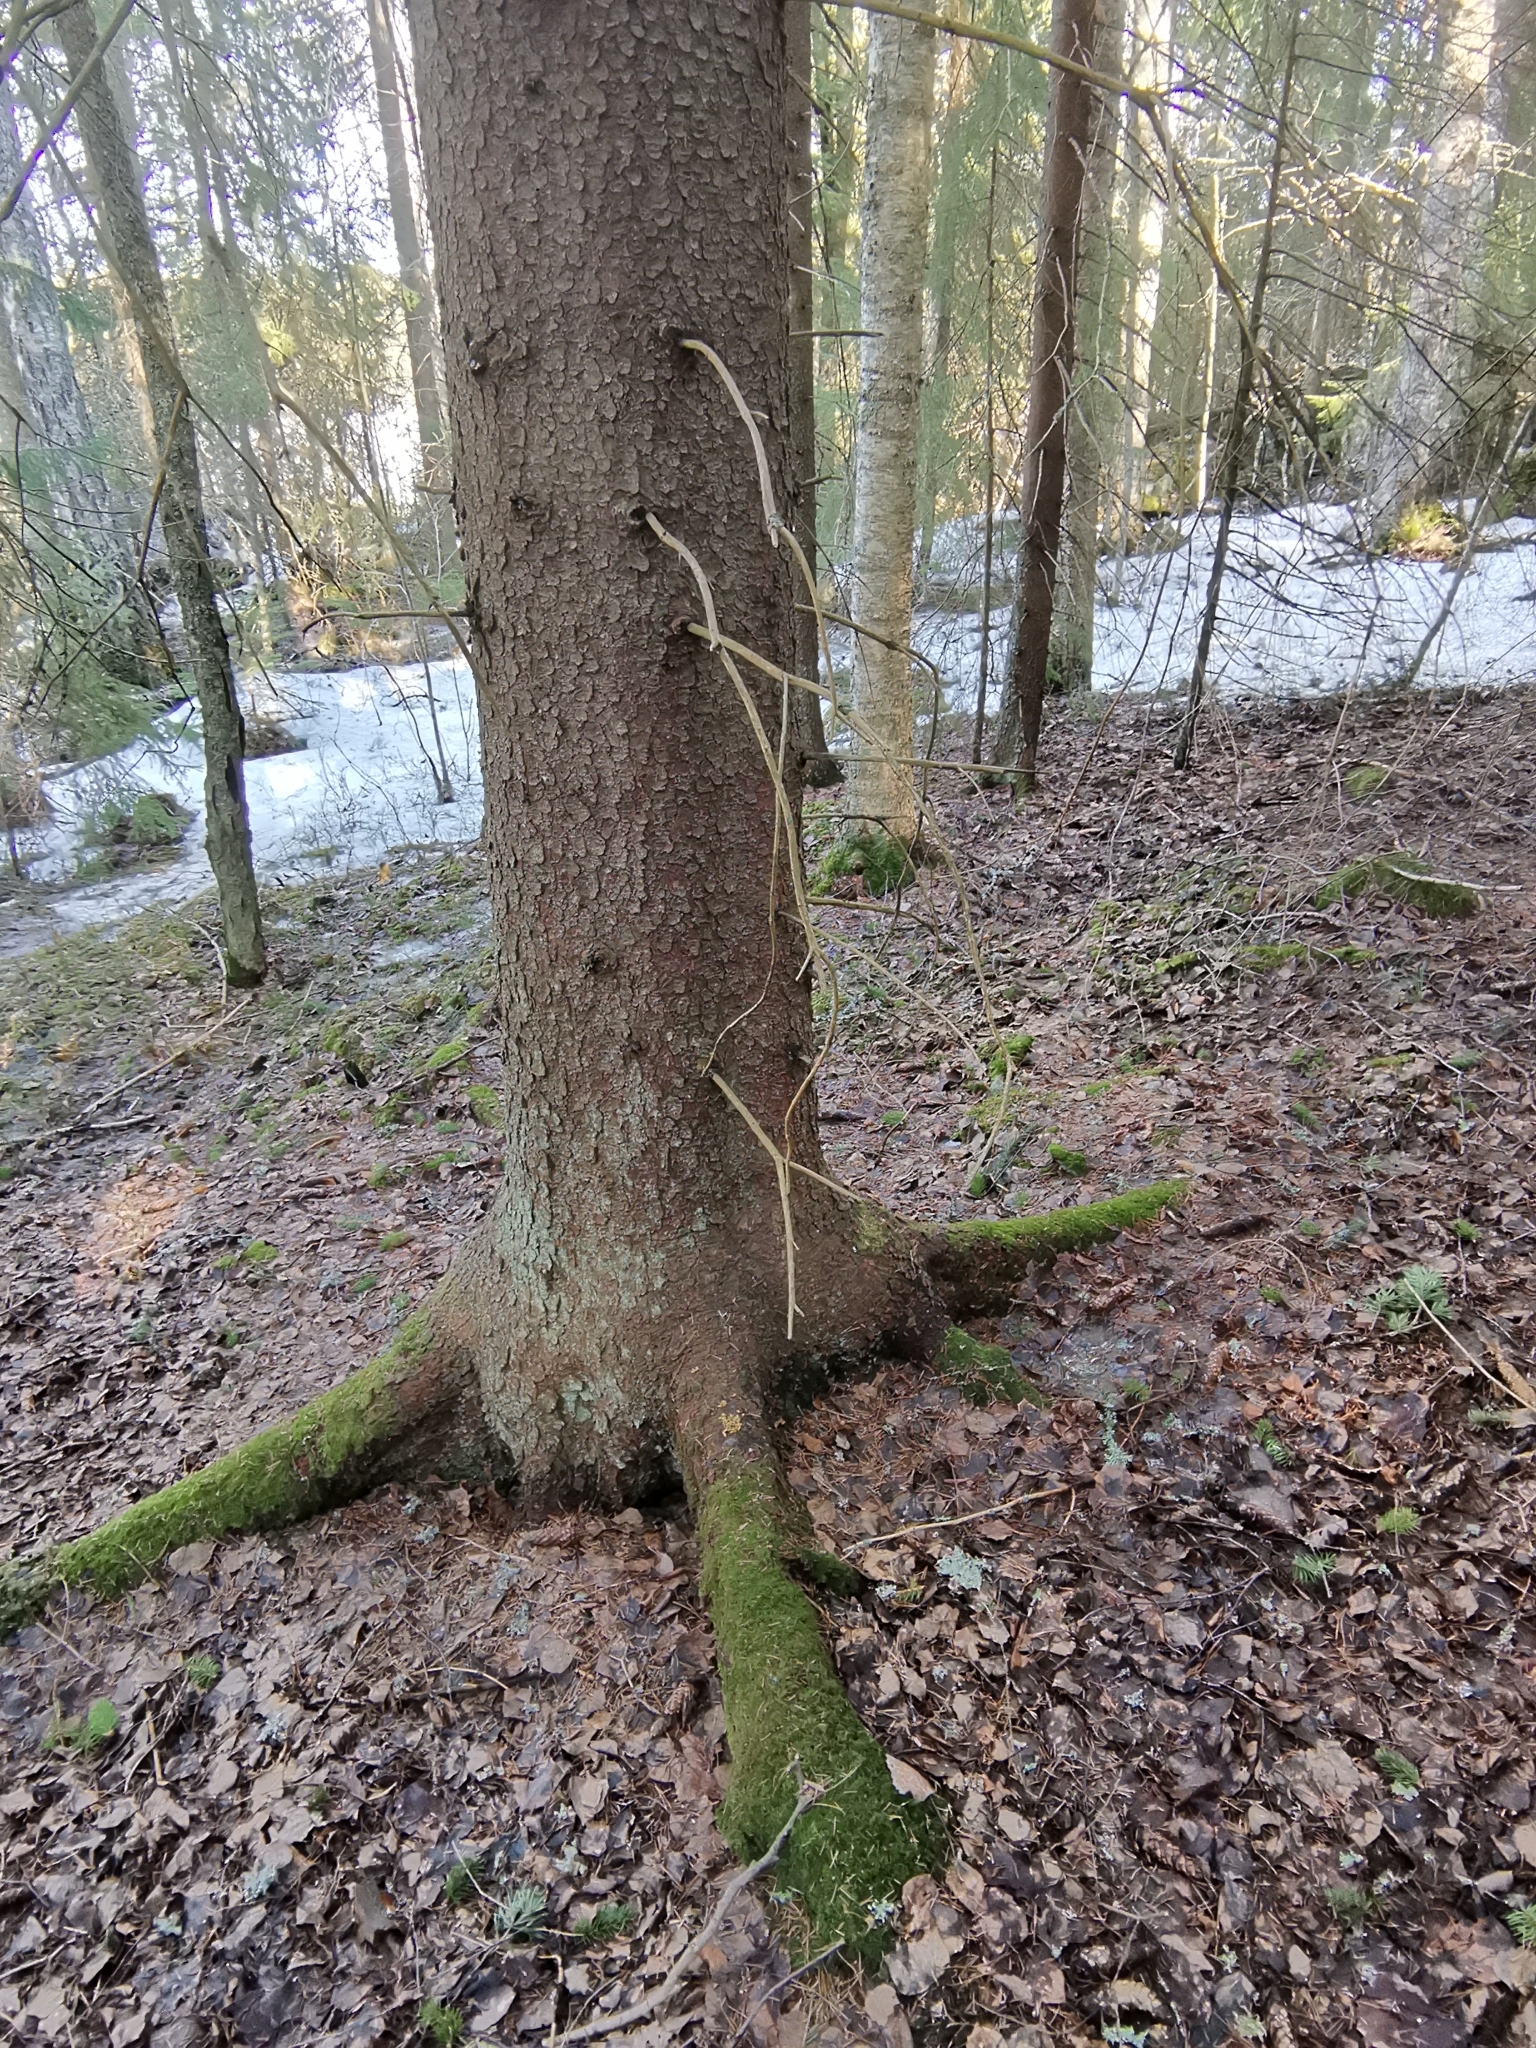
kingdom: Animalia
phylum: Chordata
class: Mammalia
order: Rodentia
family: Sciuridae
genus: Pteromys
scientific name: Pteromys volans
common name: Siberian flying squirrel
